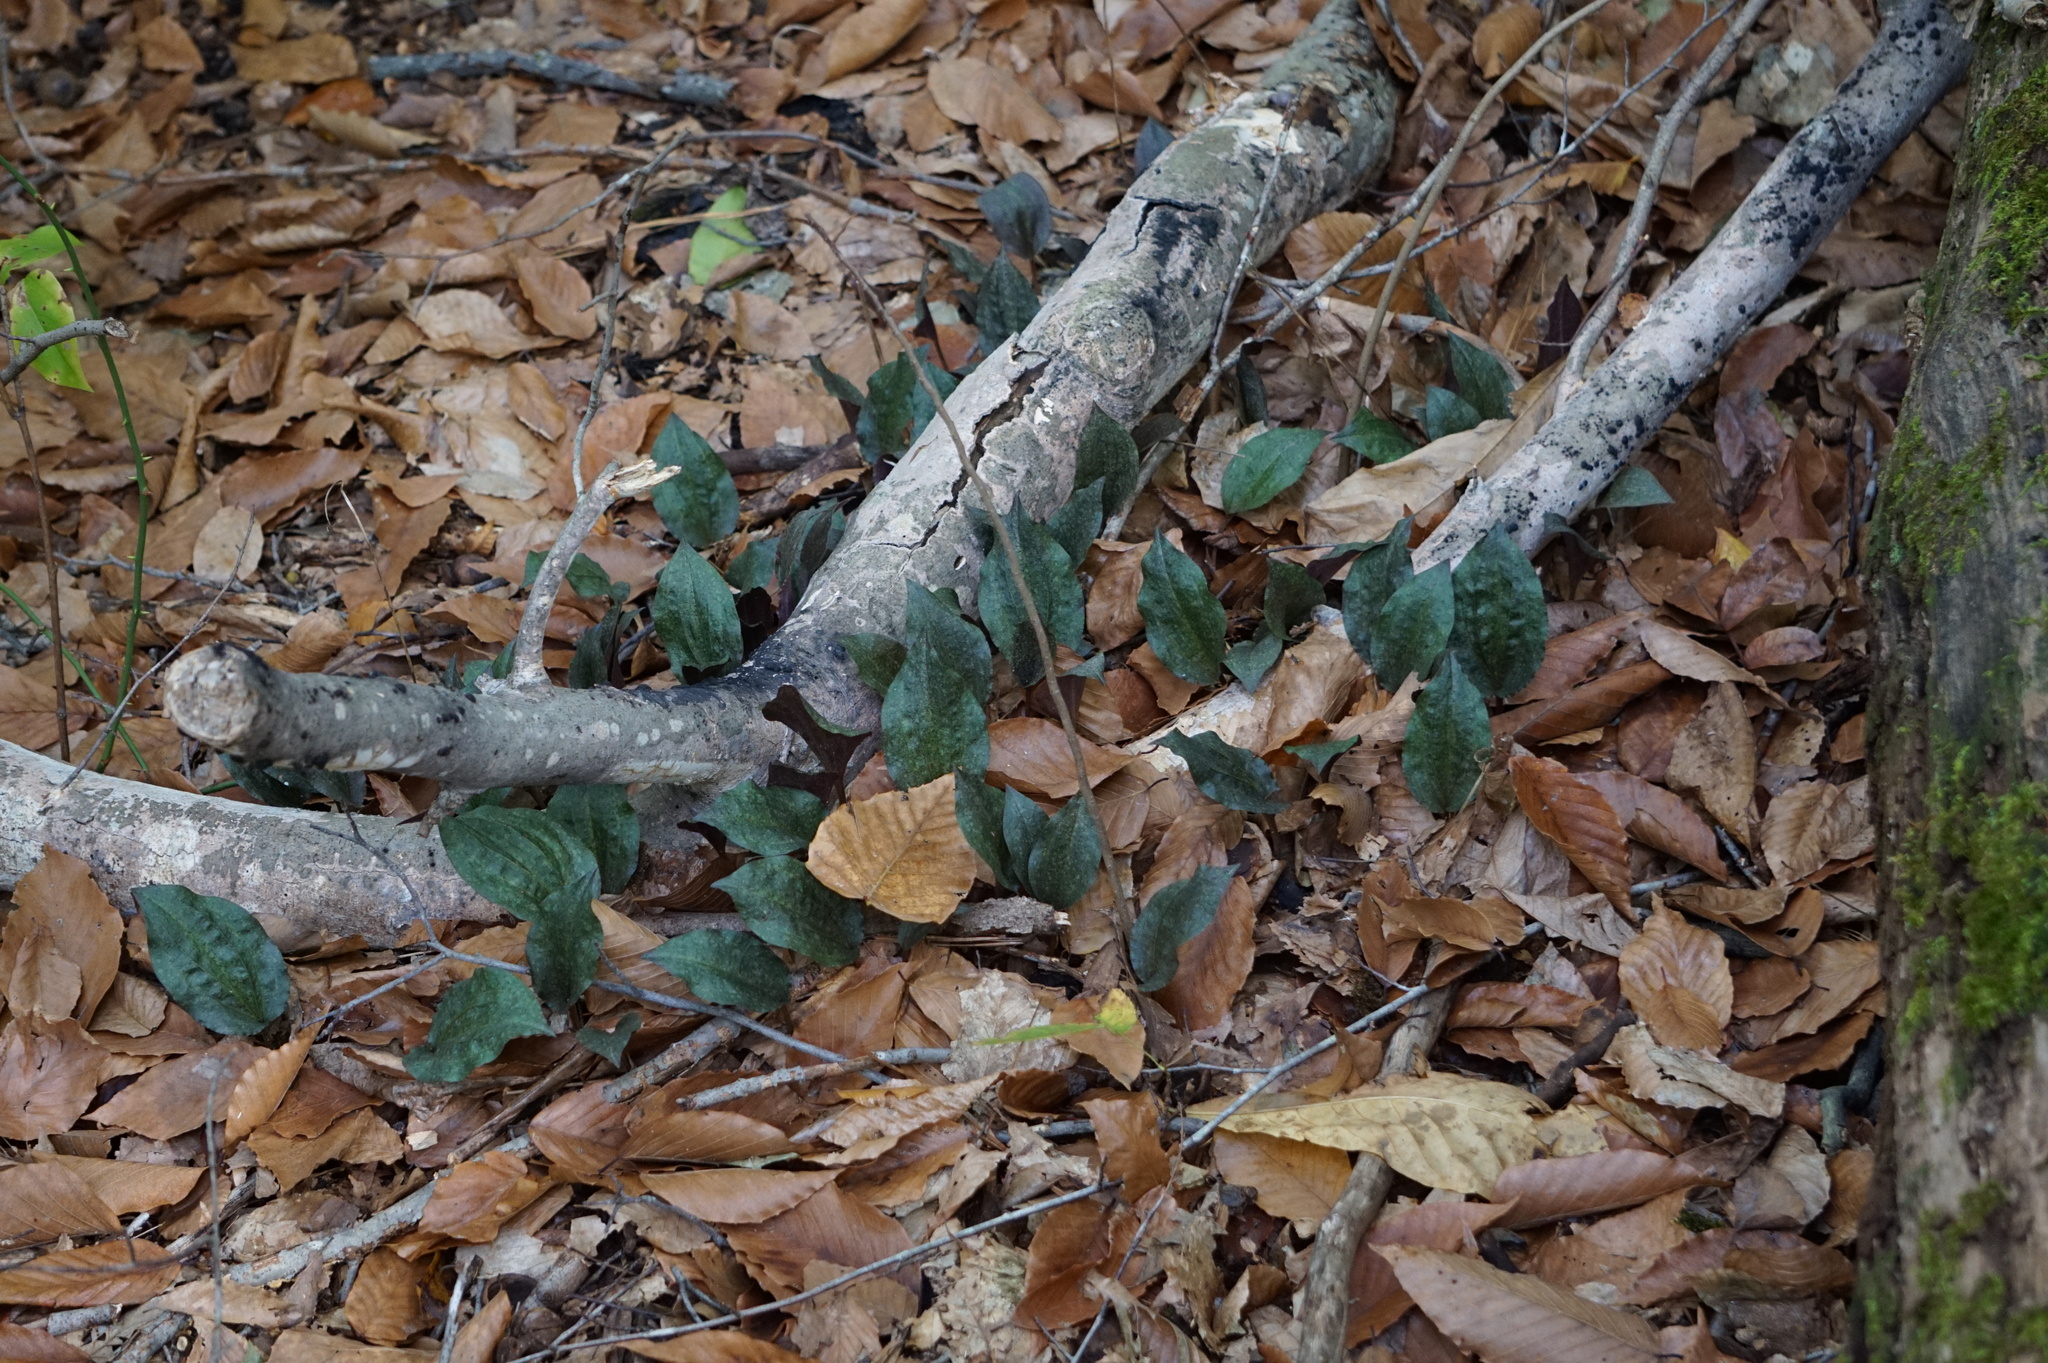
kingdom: Plantae
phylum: Tracheophyta
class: Liliopsida
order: Asparagales
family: Orchidaceae
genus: Tipularia
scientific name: Tipularia discolor
